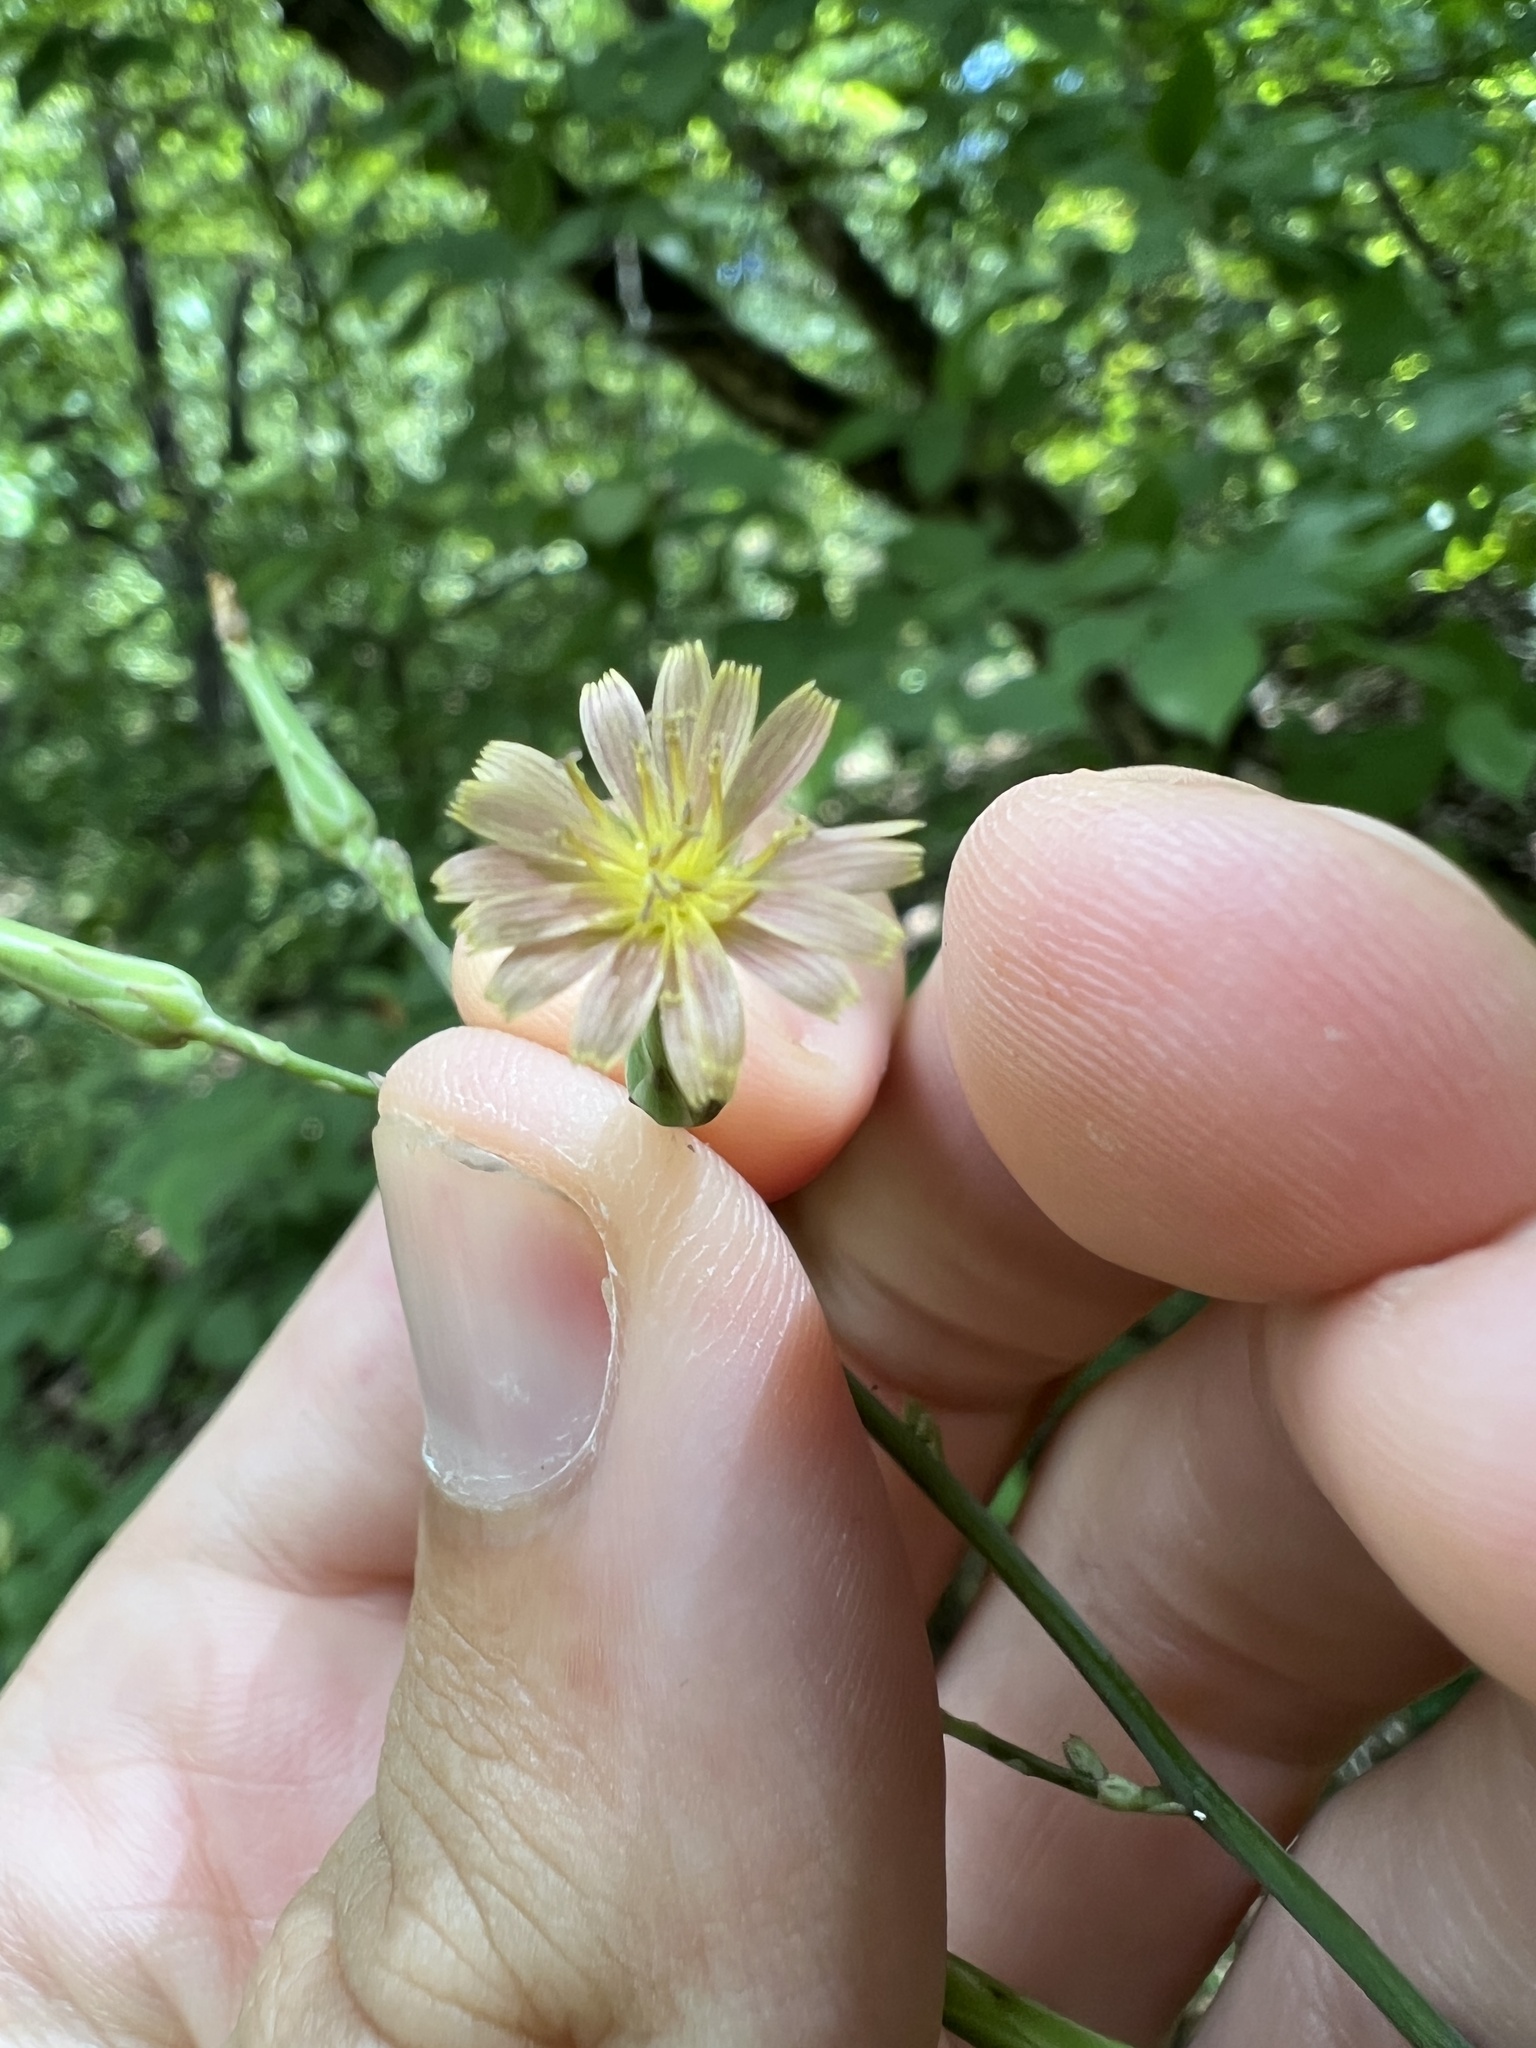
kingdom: Plantae
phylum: Tracheophyta
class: Magnoliopsida
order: Asterales
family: Asteraceae
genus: Lactuca
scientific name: Lactuca hirsuta
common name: Hairy lettuce
